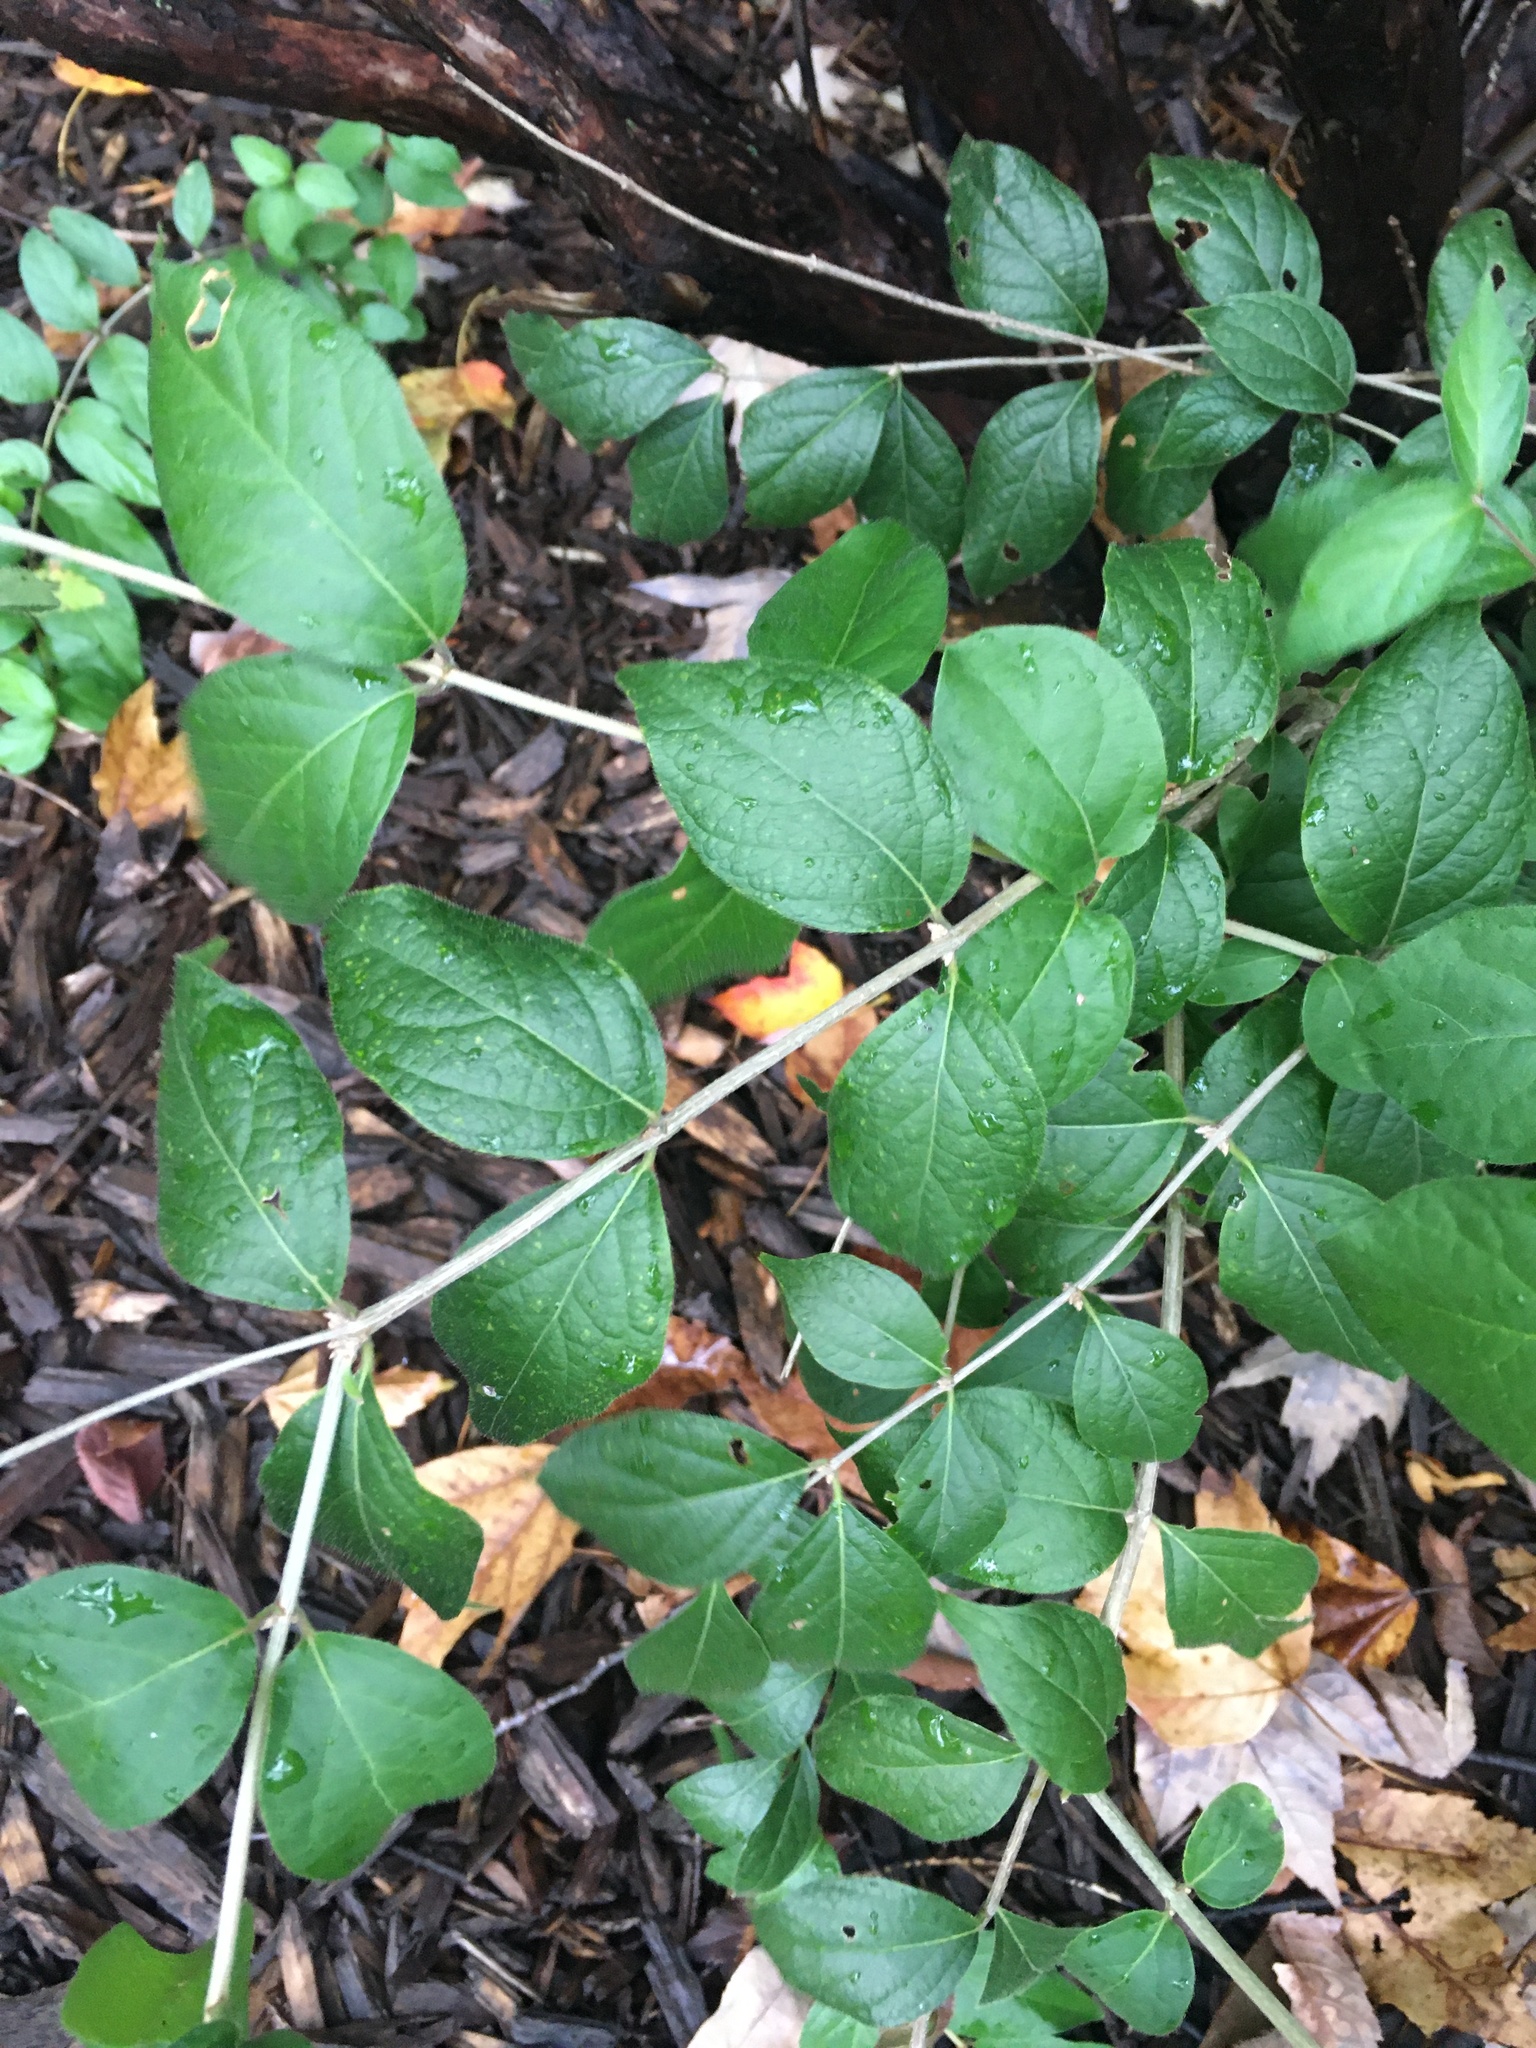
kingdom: Plantae
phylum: Tracheophyta
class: Magnoliopsida
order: Dipsacales
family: Caprifoliaceae
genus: Lonicera
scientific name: Lonicera maackii
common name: Amur honeysuckle
